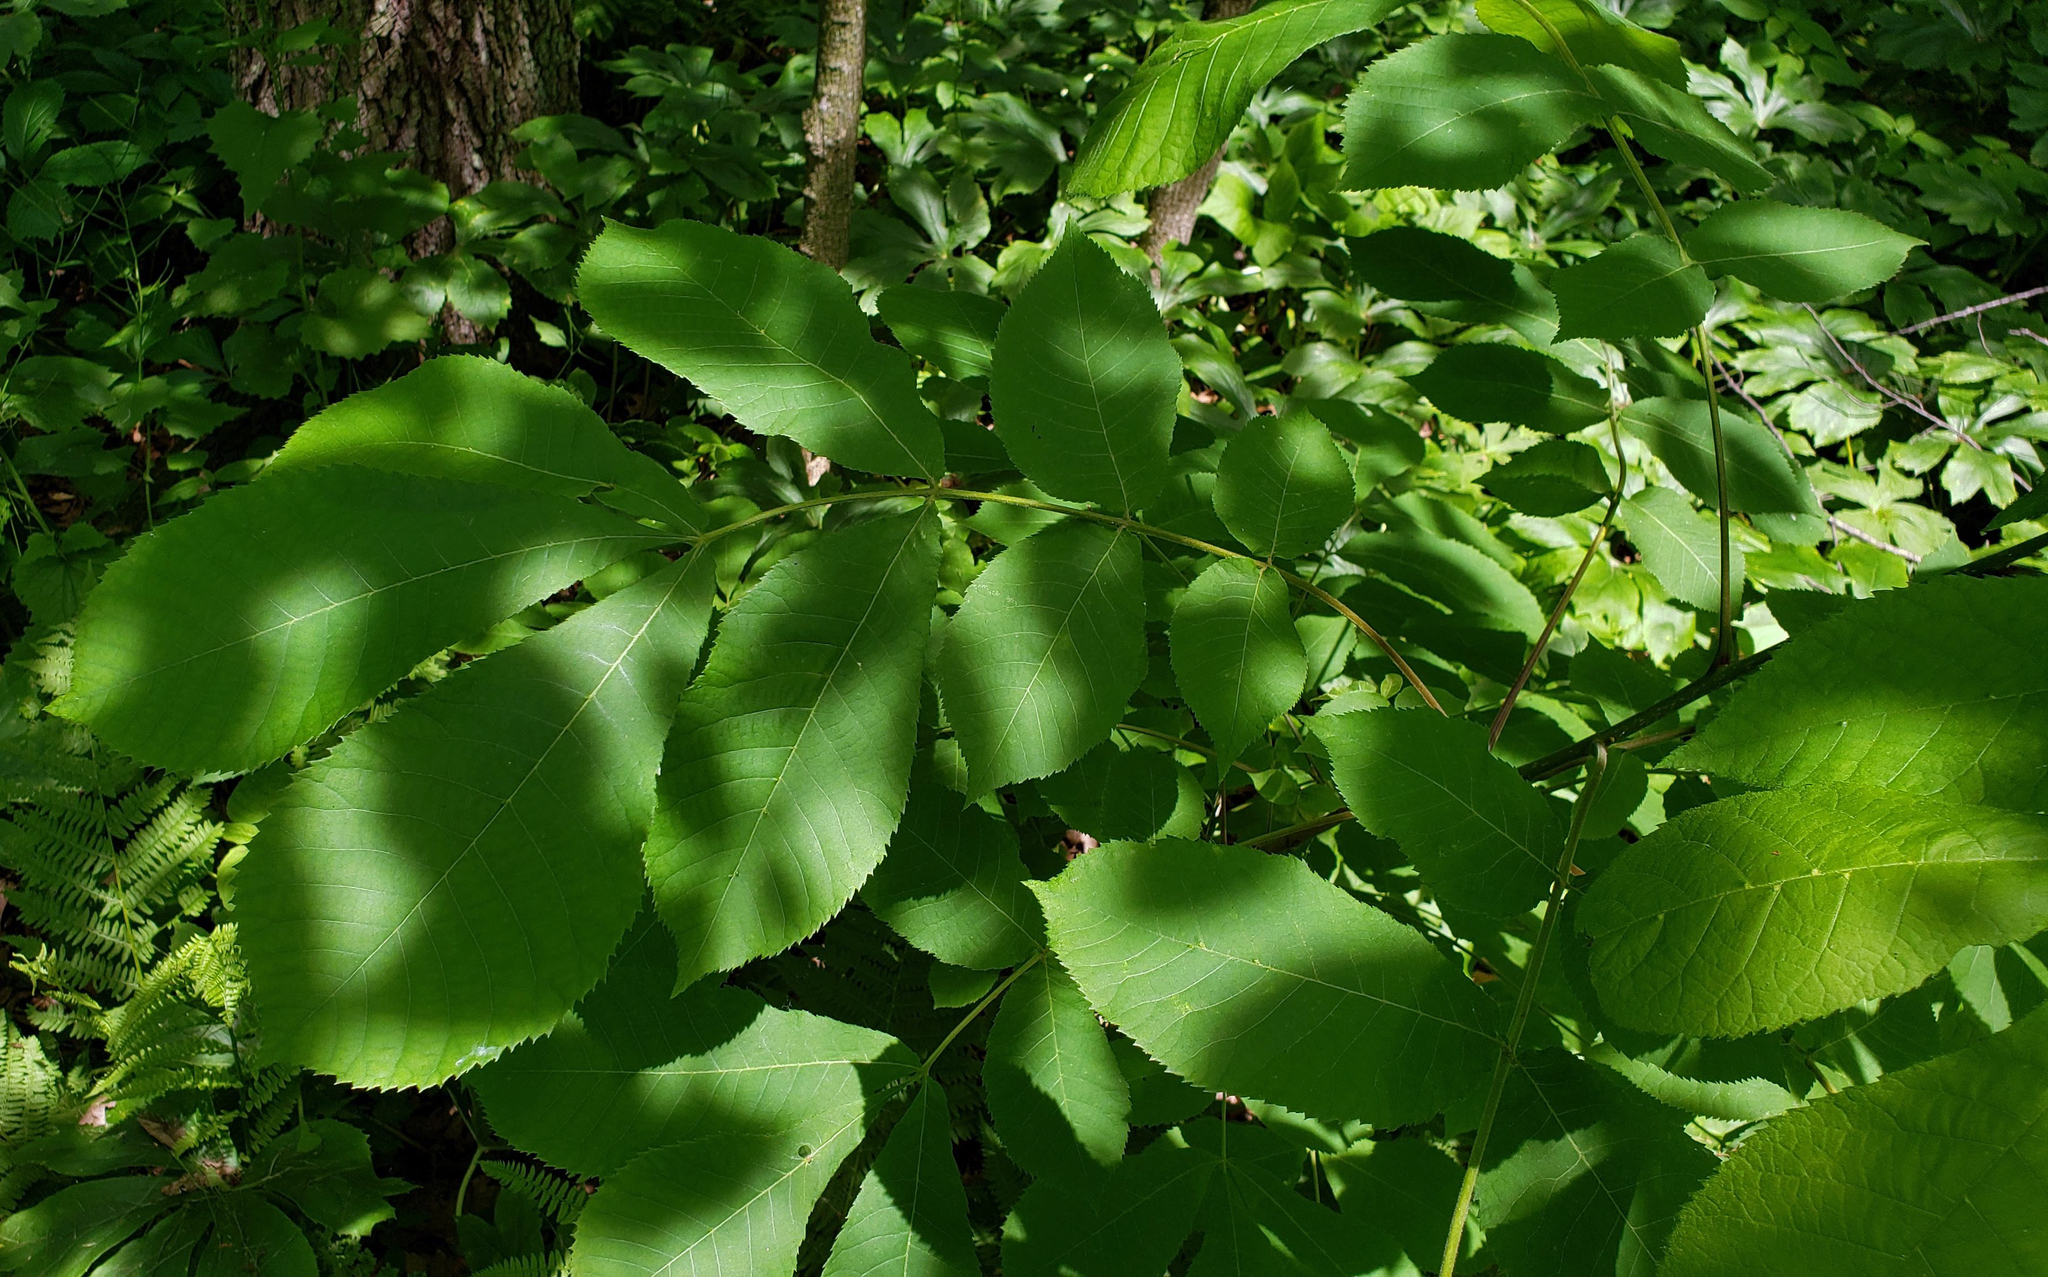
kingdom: Plantae
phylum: Tracheophyta
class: Magnoliopsida
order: Fagales
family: Juglandaceae
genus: Carya
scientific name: Carya cordiformis
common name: Bitternut hickory
